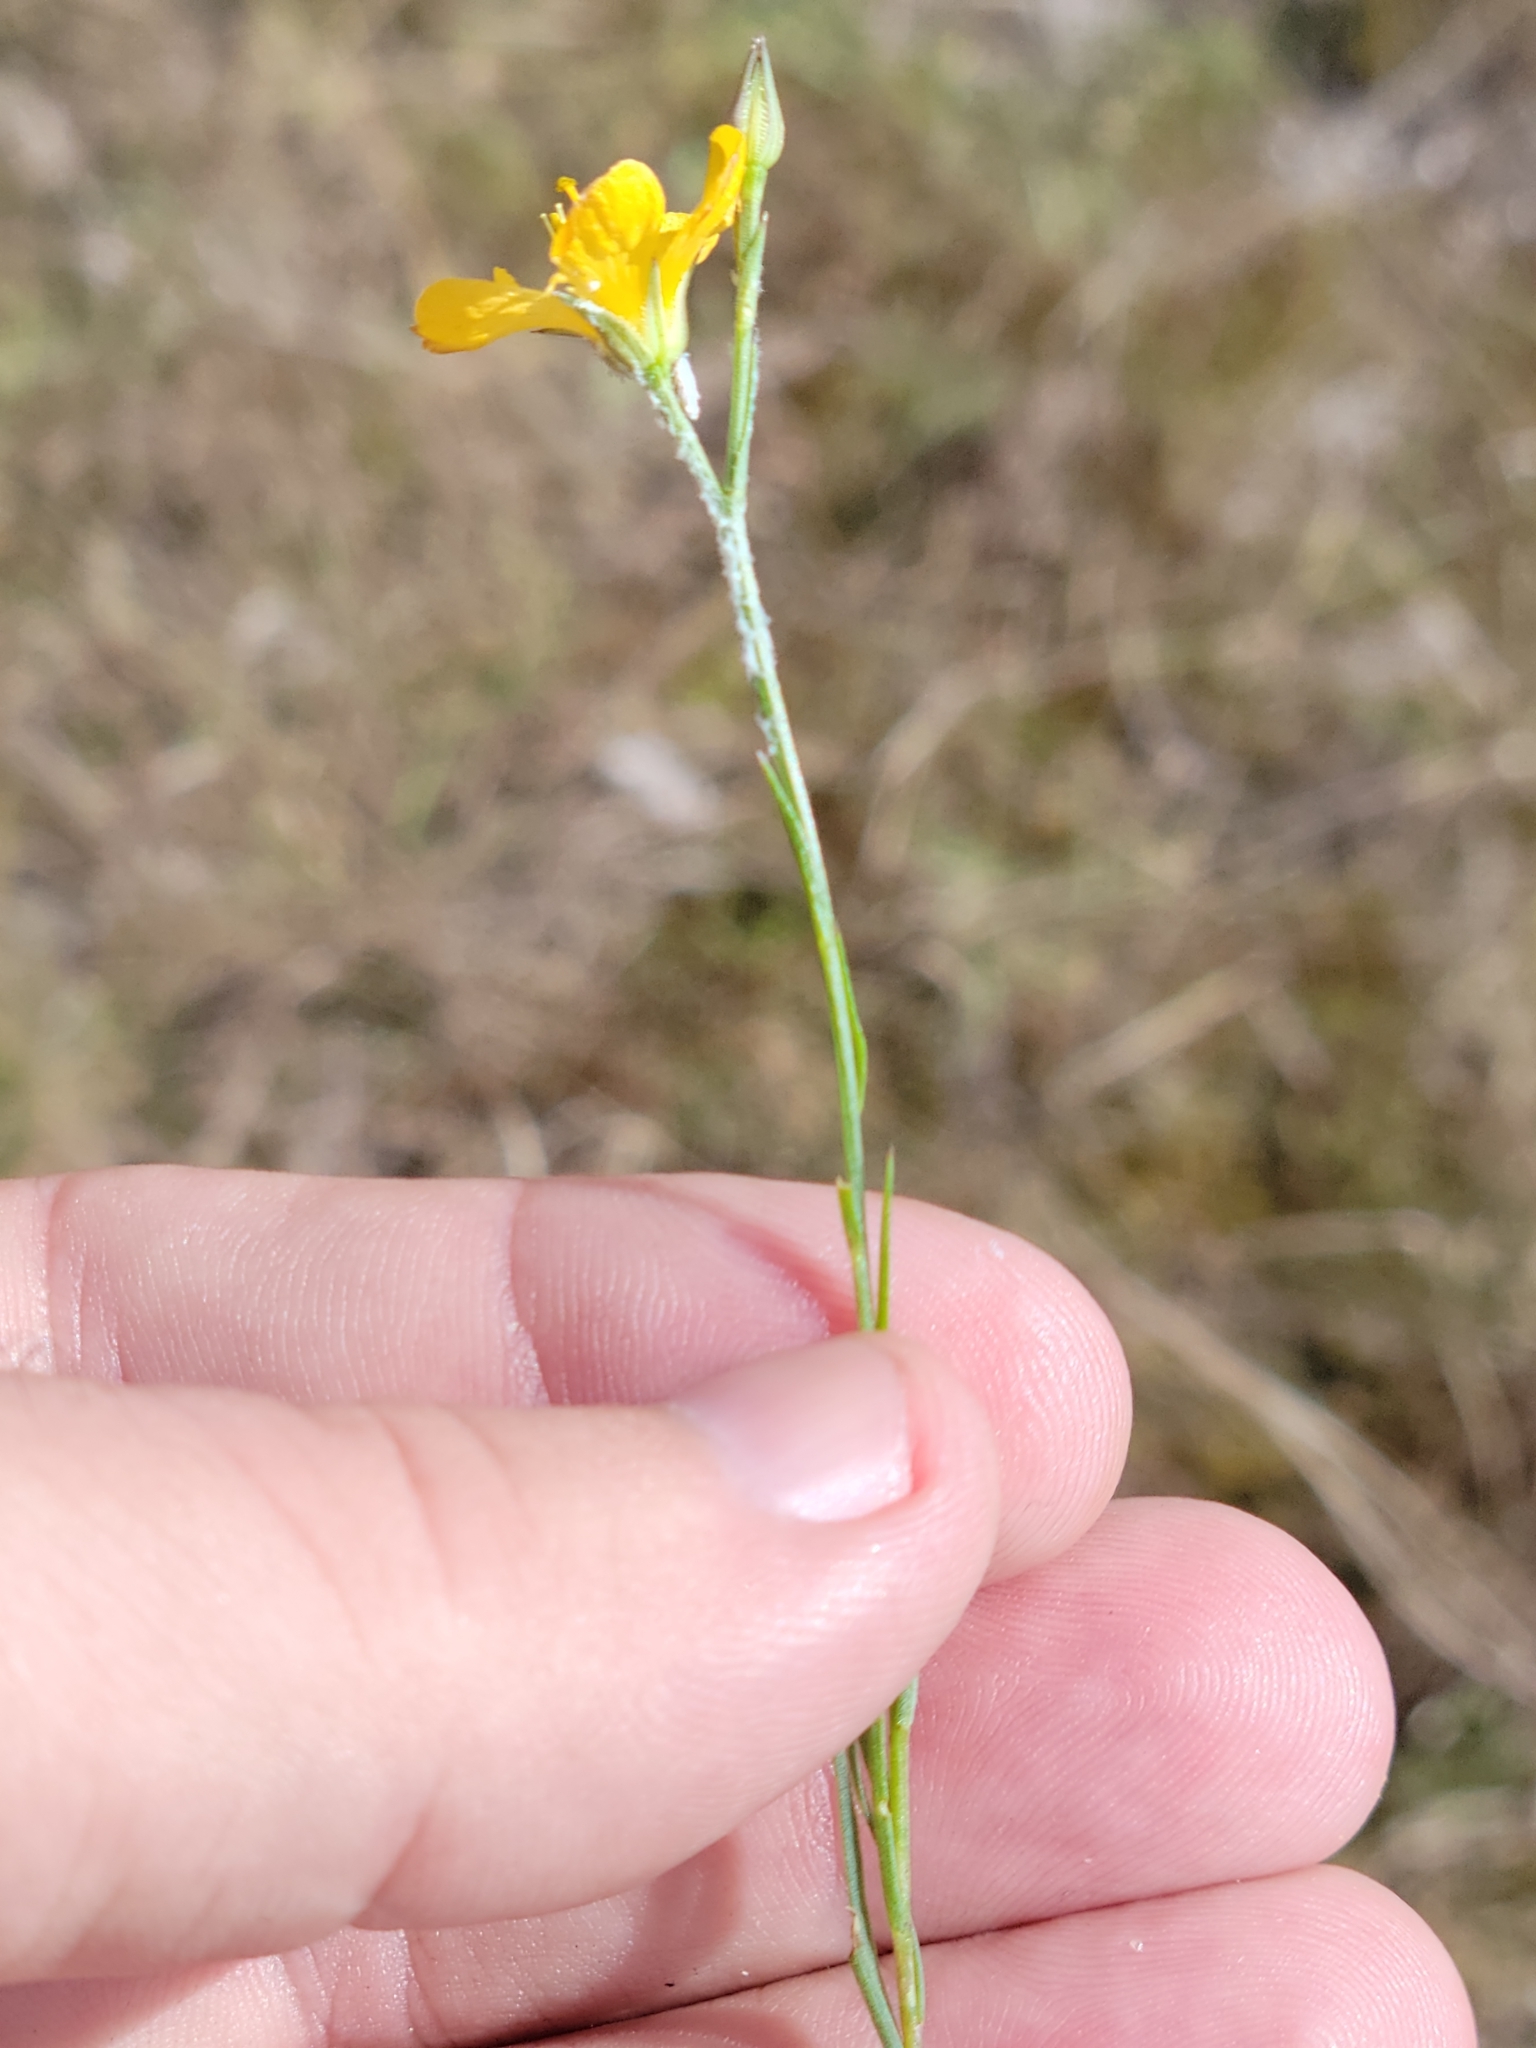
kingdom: Plantae
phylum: Tracheophyta
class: Magnoliopsida
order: Malpighiales
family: Linaceae
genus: Linum
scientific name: Linum smallii
